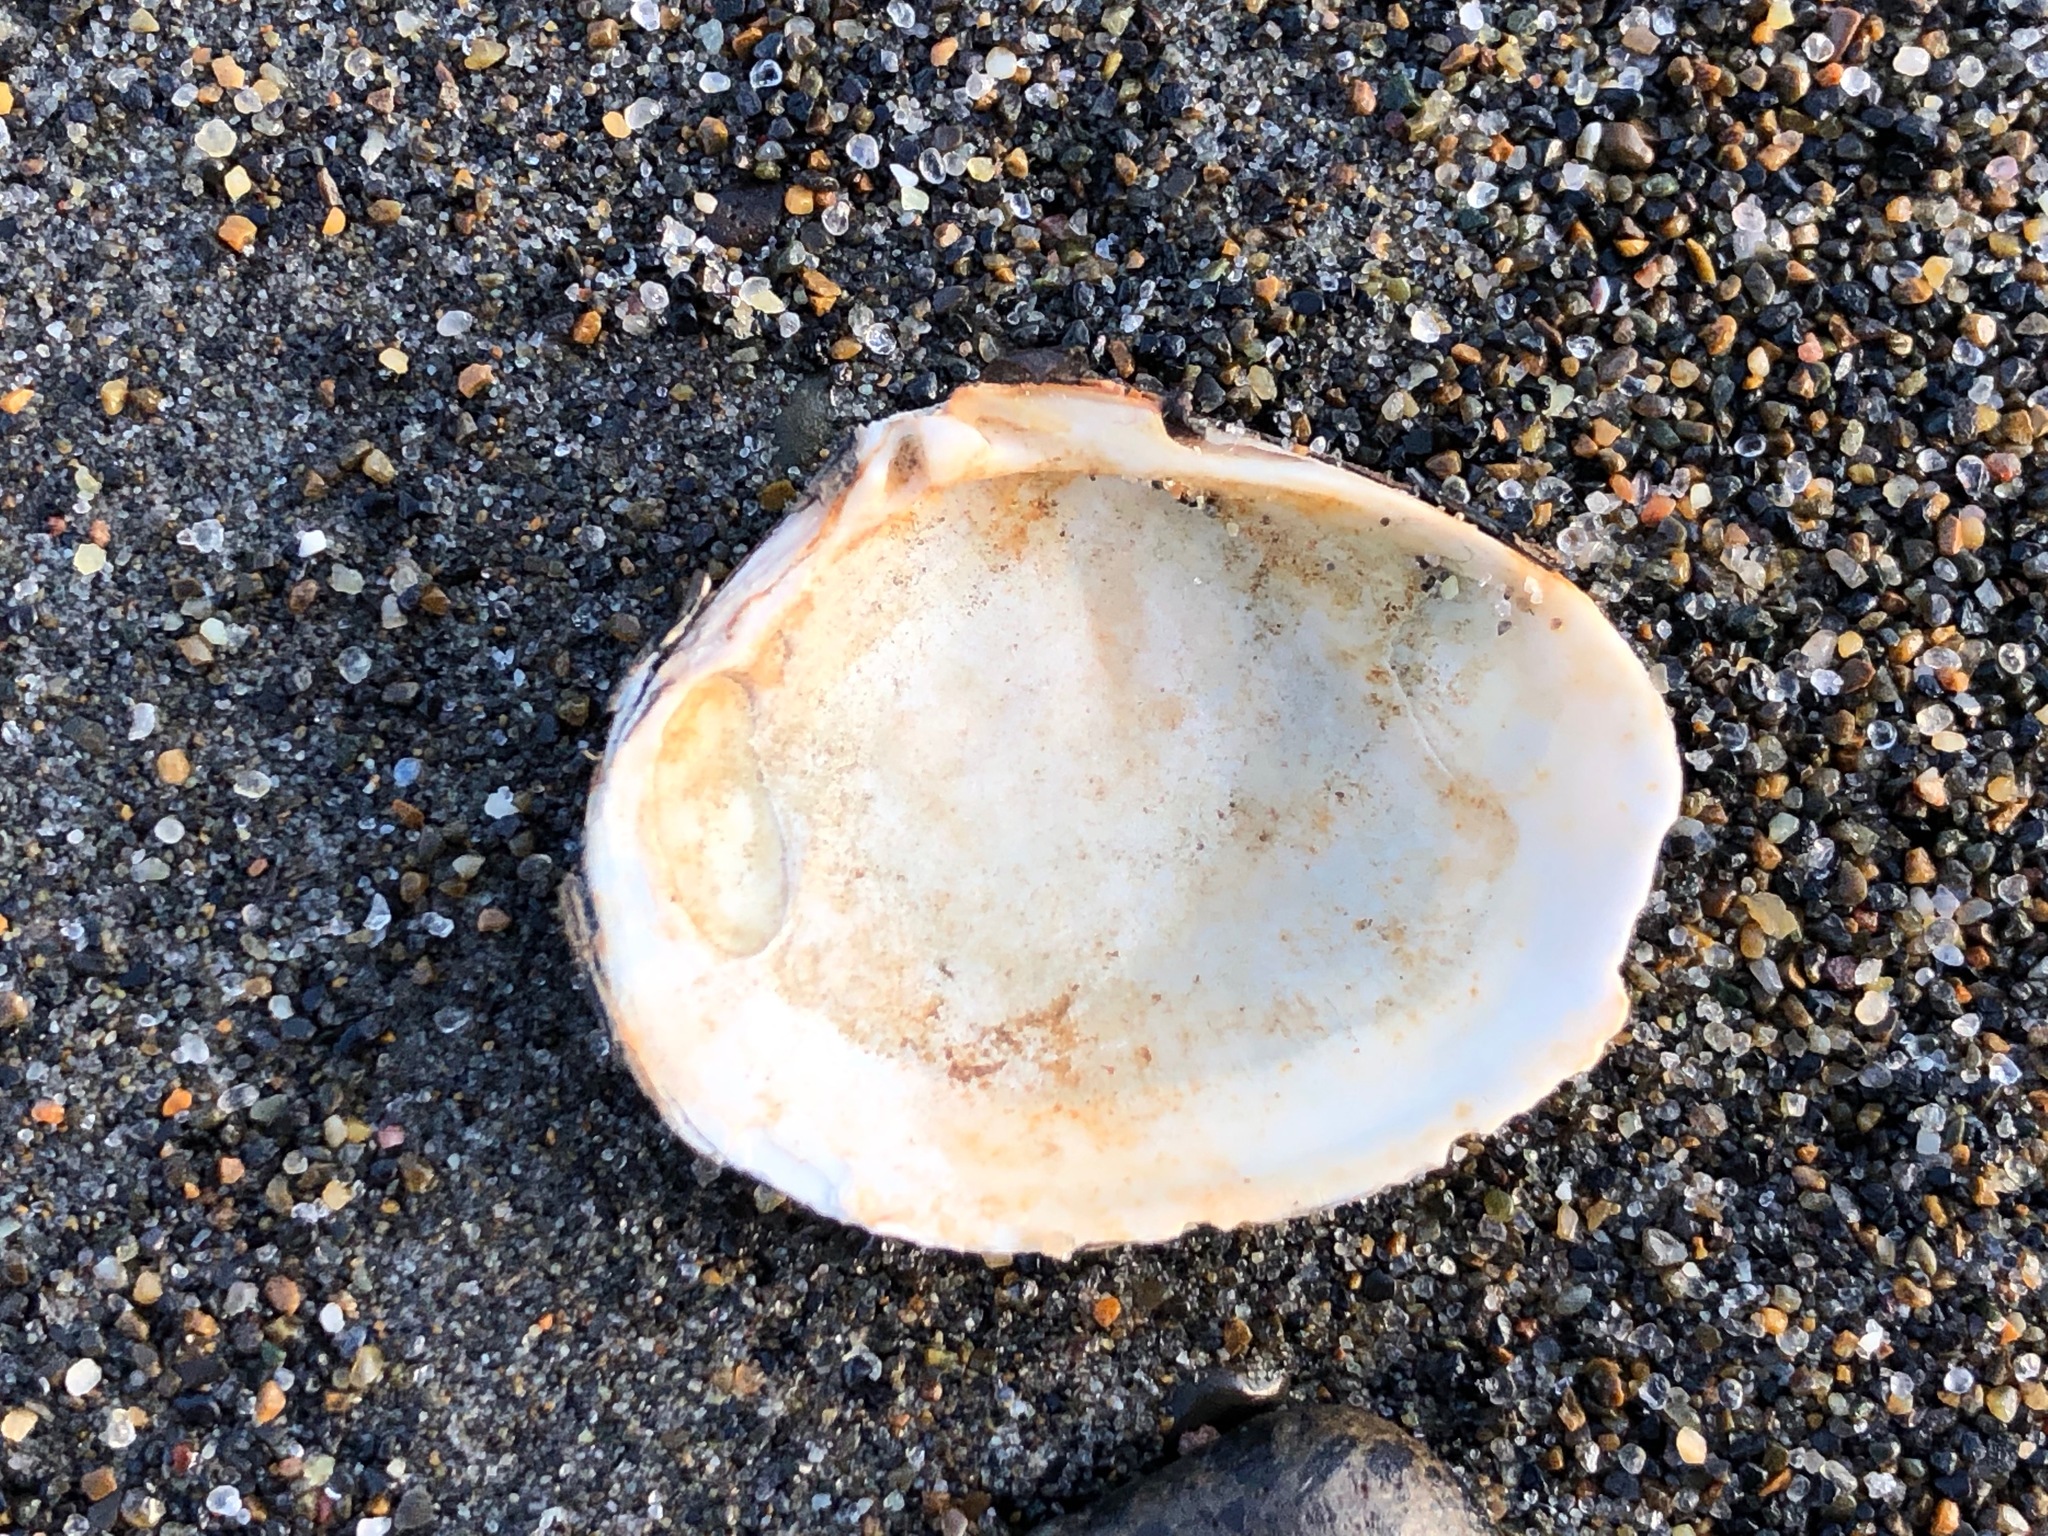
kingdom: Animalia
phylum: Mollusca
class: Bivalvia
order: Carditida
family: Astartidae
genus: Astarte
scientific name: Astarte borealis
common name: Boreal tridonta
